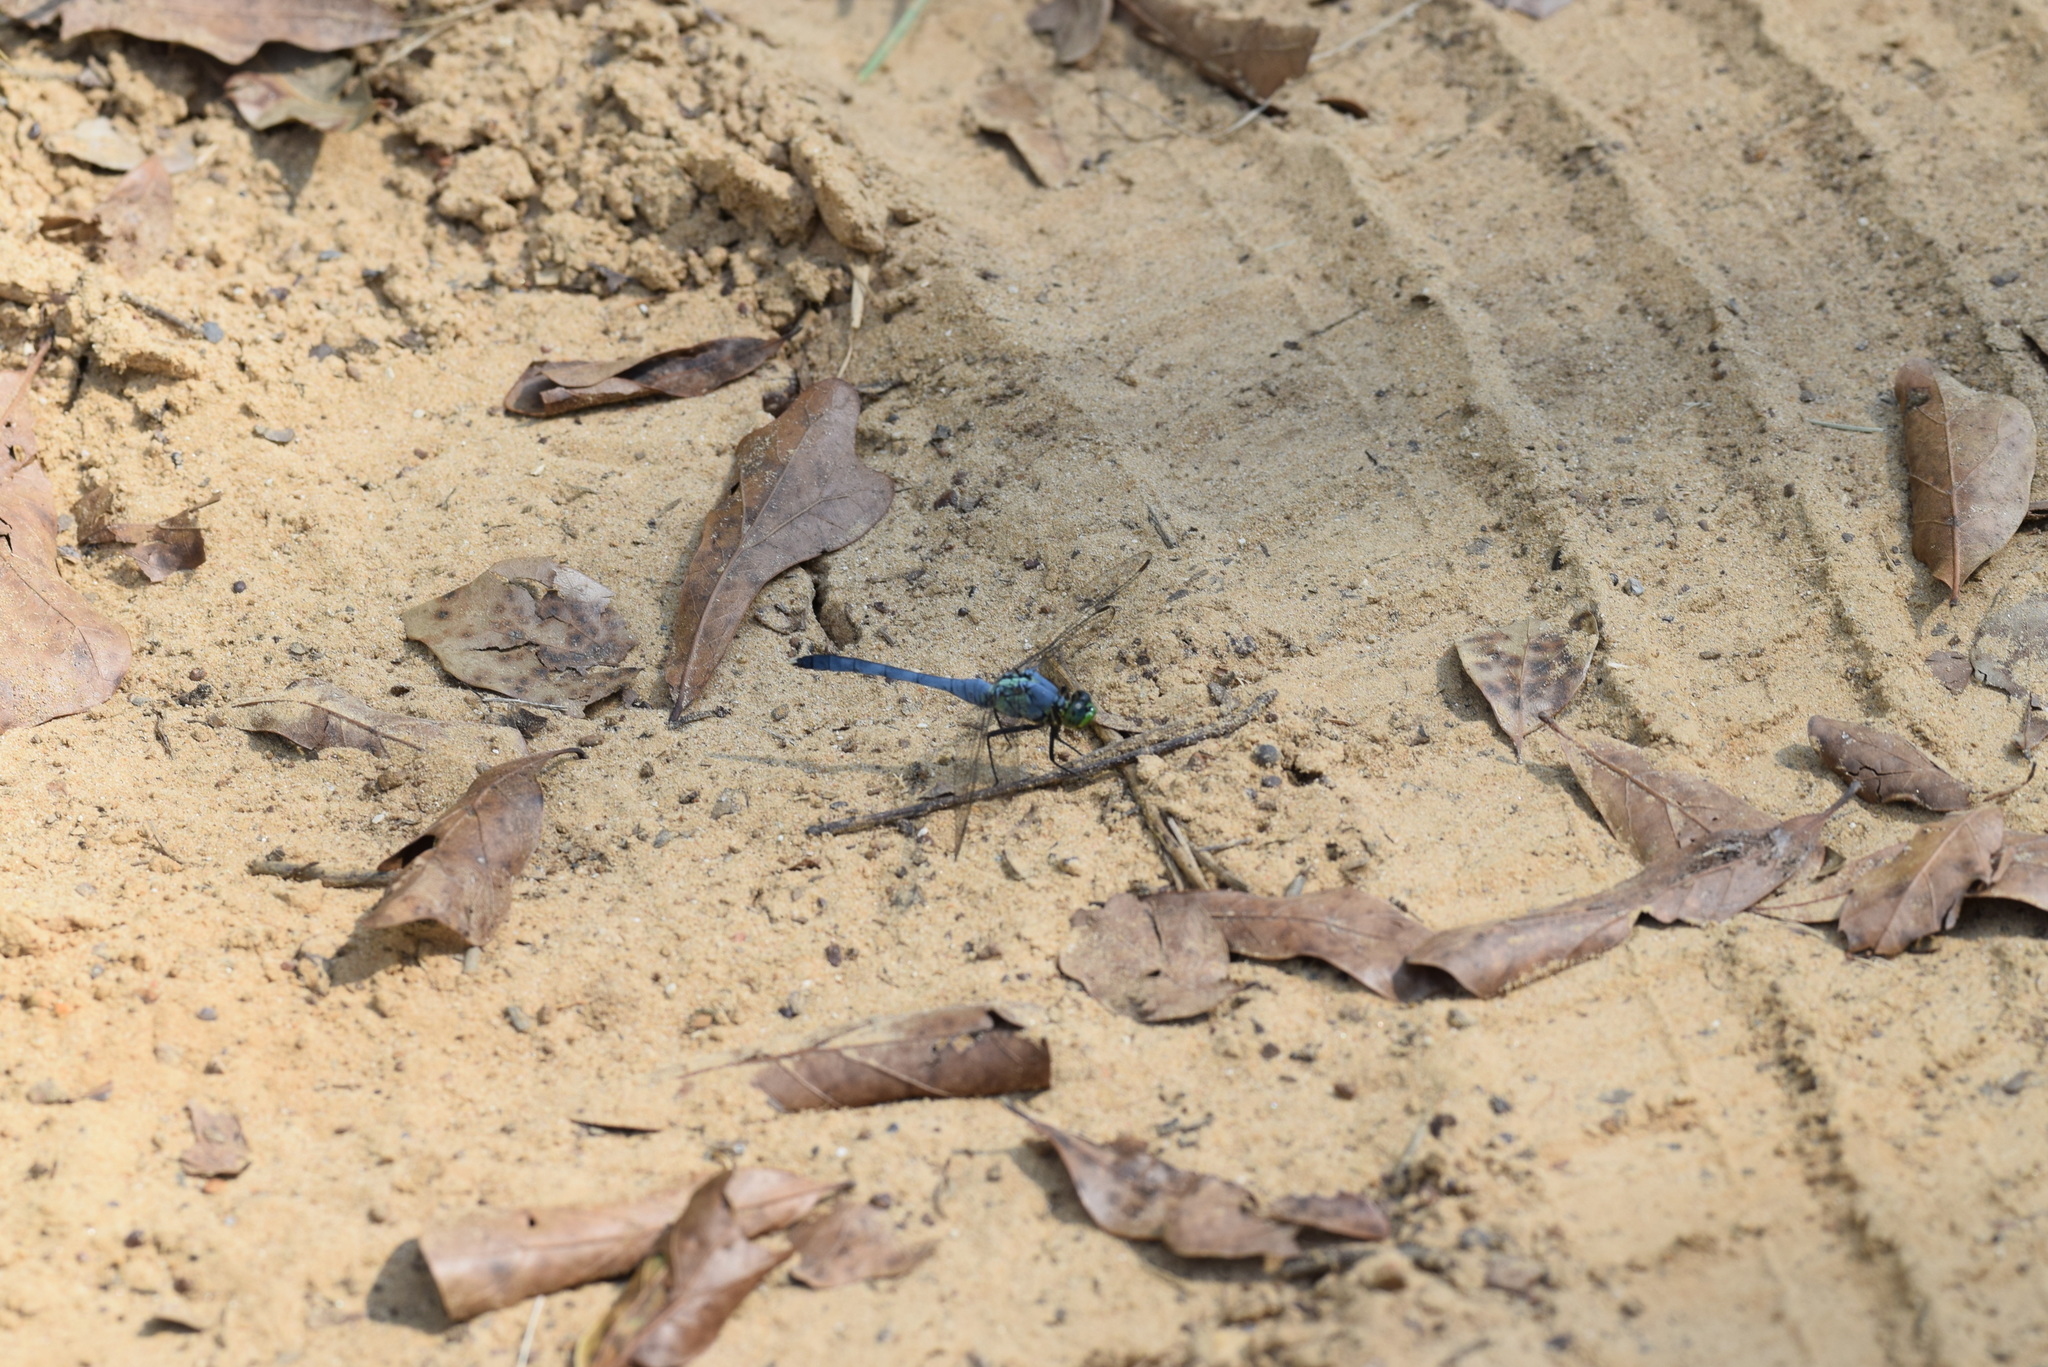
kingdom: Animalia
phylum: Arthropoda
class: Insecta
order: Odonata
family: Libellulidae
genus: Erythemis
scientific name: Erythemis simplicicollis
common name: Eastern pondhawk
